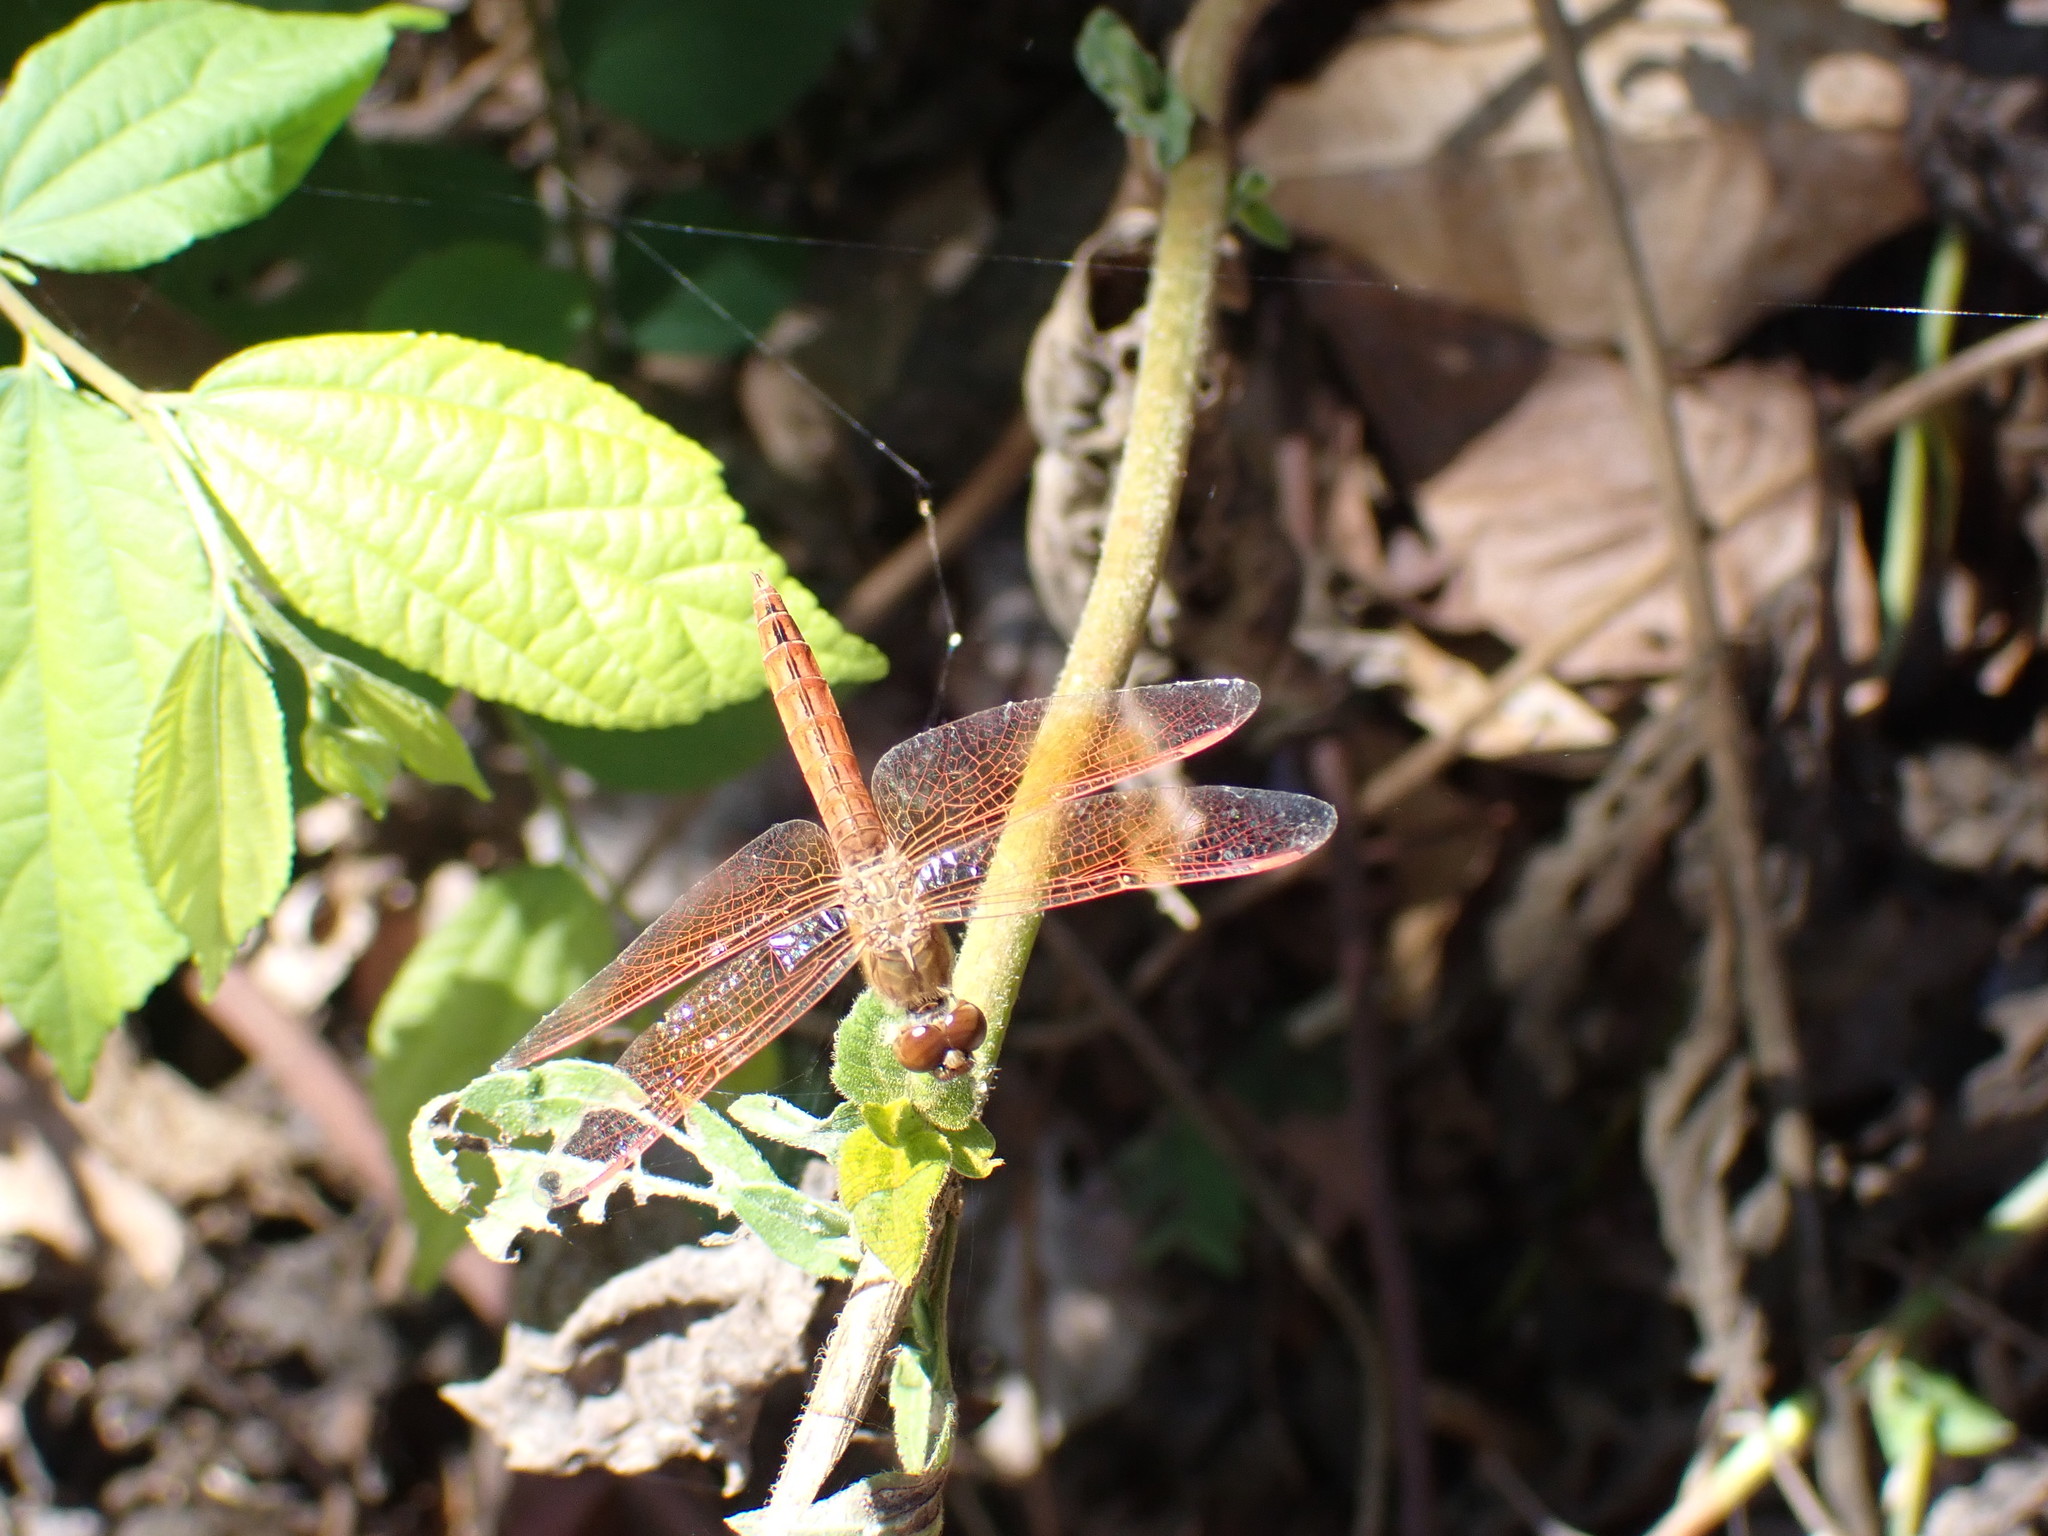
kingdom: Animalia
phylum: Arthropoda
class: Insecta
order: Odonata
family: Libellulidae
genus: Brachythemis
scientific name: Brachythemis contaminata
